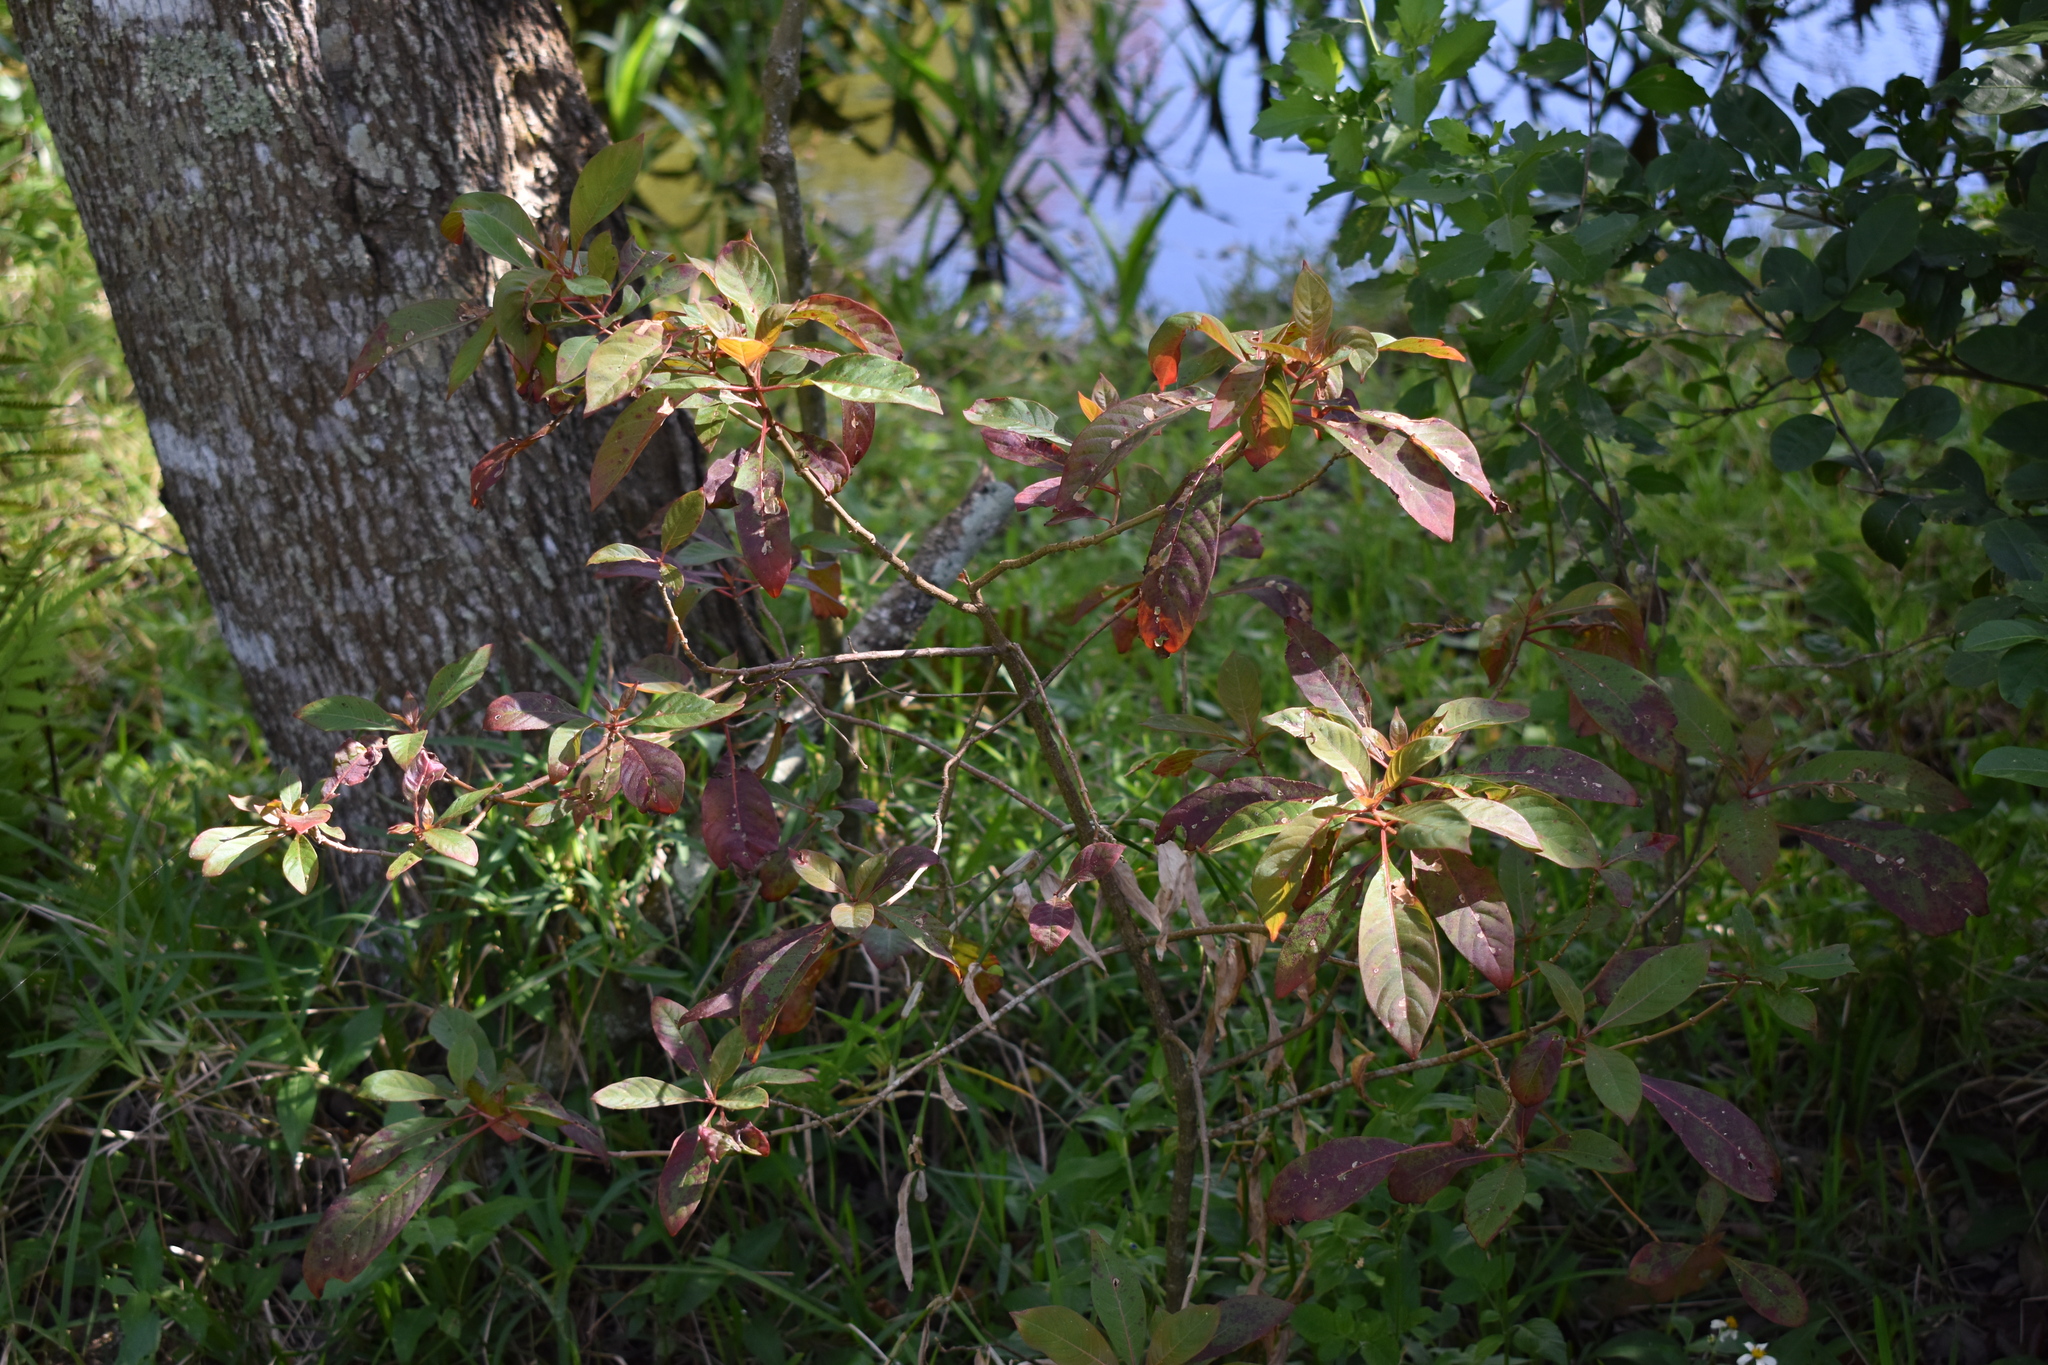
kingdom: Plantae
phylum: Tracheophyta
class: Magnoliopsida
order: Gentianales
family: Rubiaceae
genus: Hamelia
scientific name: Hamelia patens
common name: Redhead
